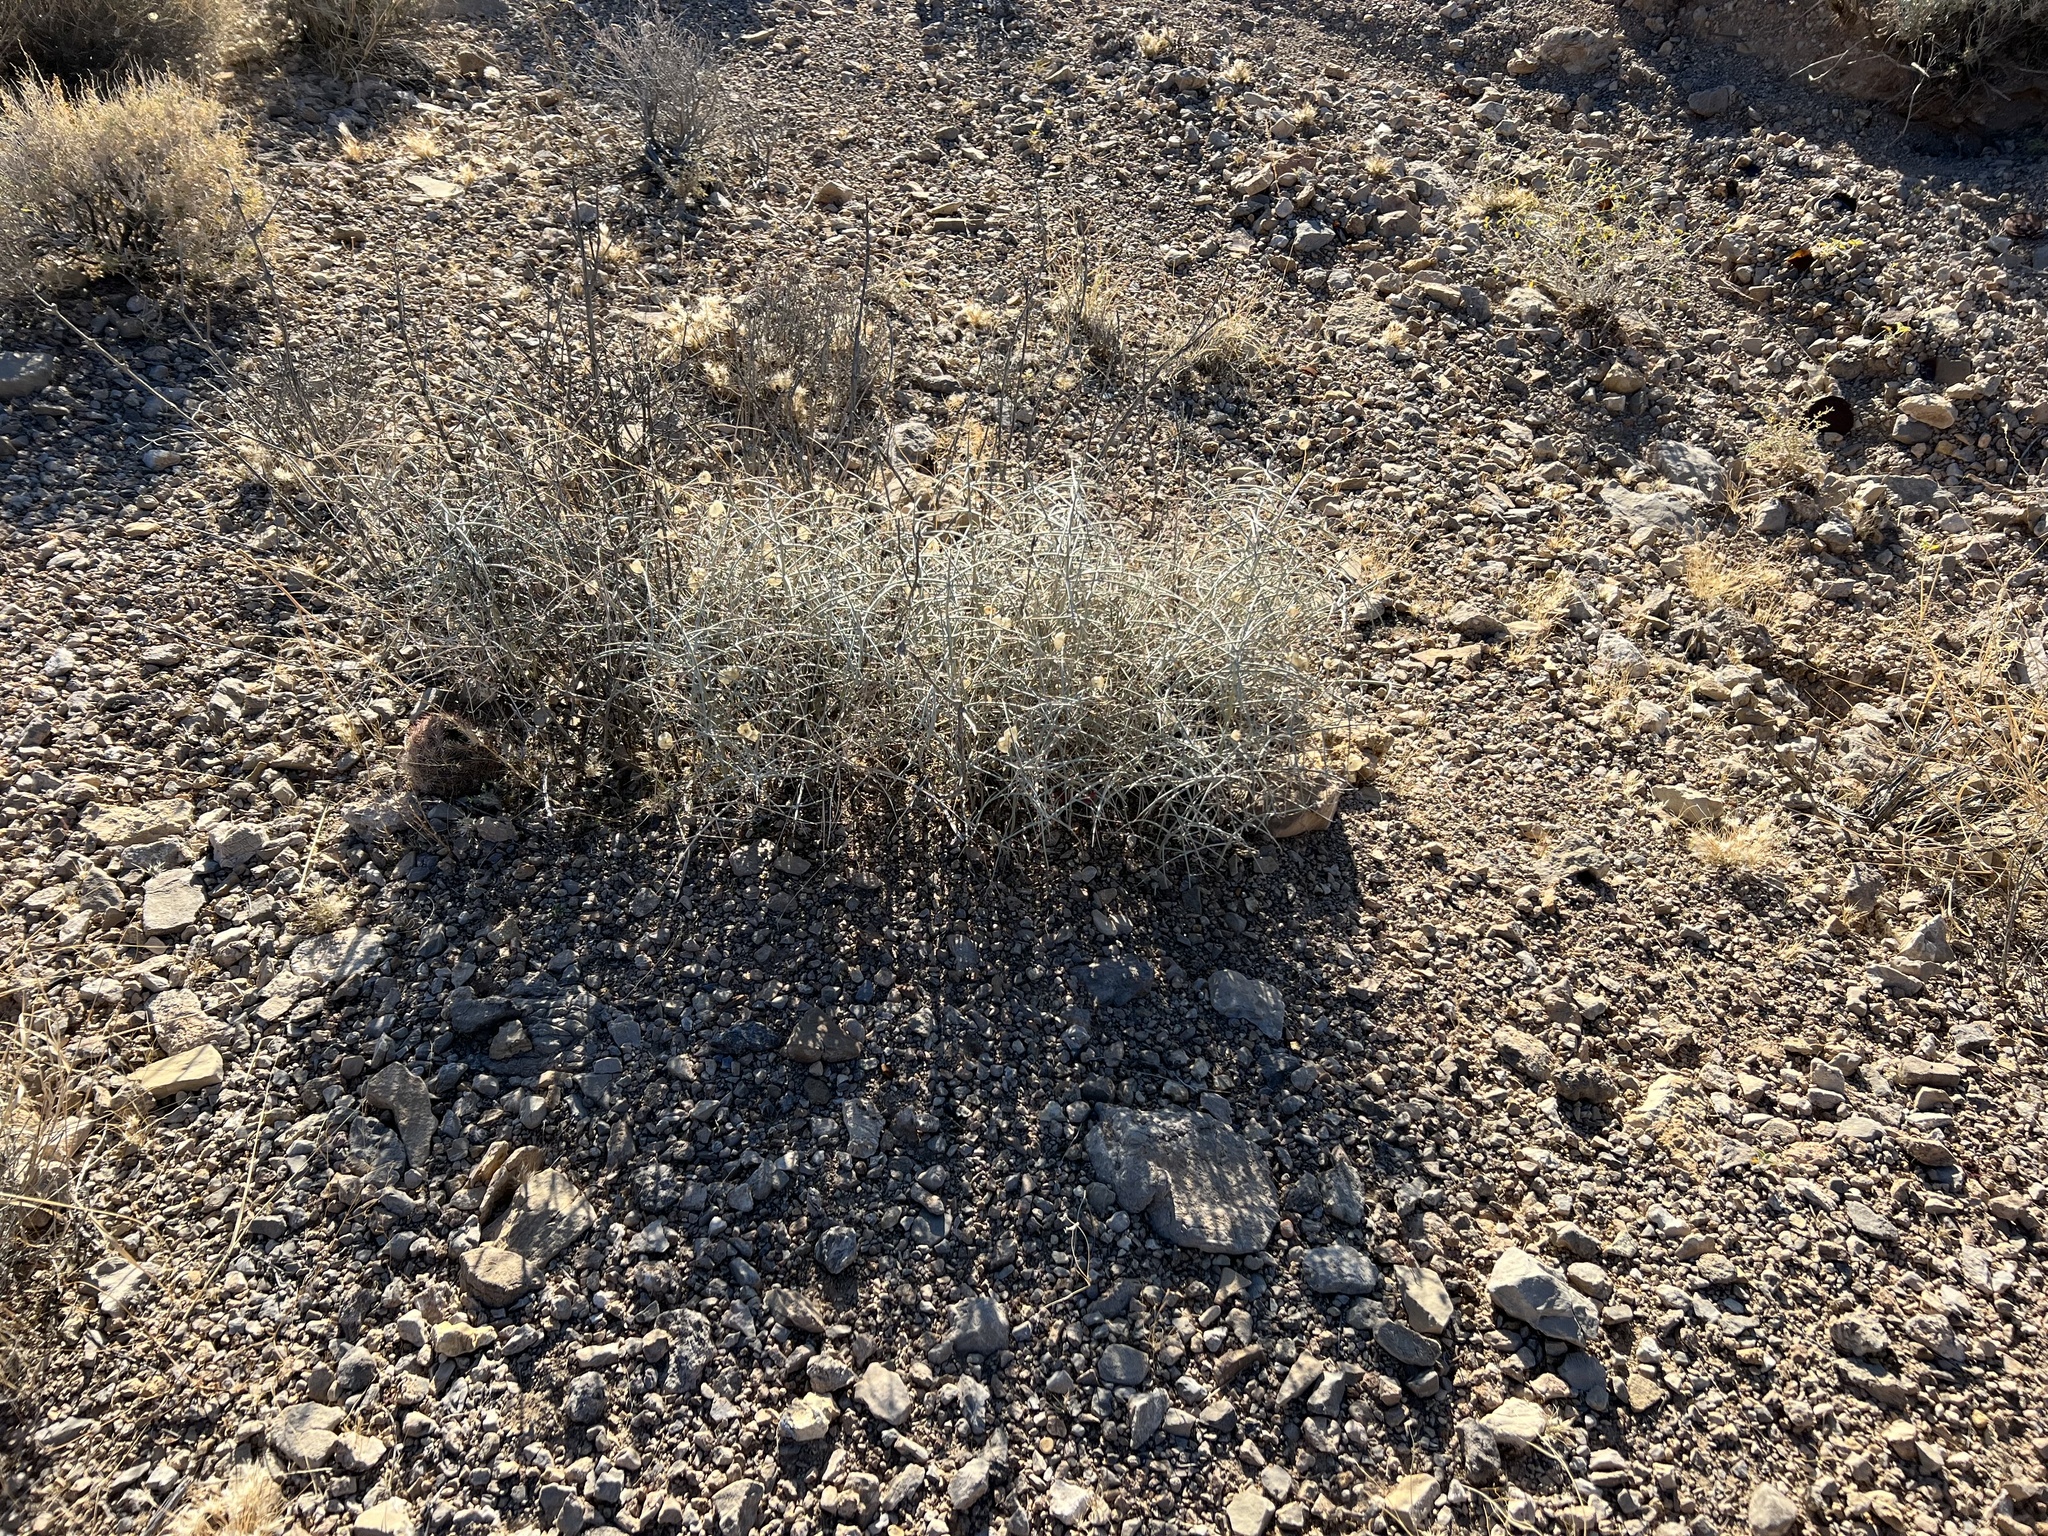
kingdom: Plantae
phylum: Tracheophyta
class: Magnoliopsida
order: Lamiales
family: Lamiaceae
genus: Scutellaria
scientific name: Scutellaria mexicana
